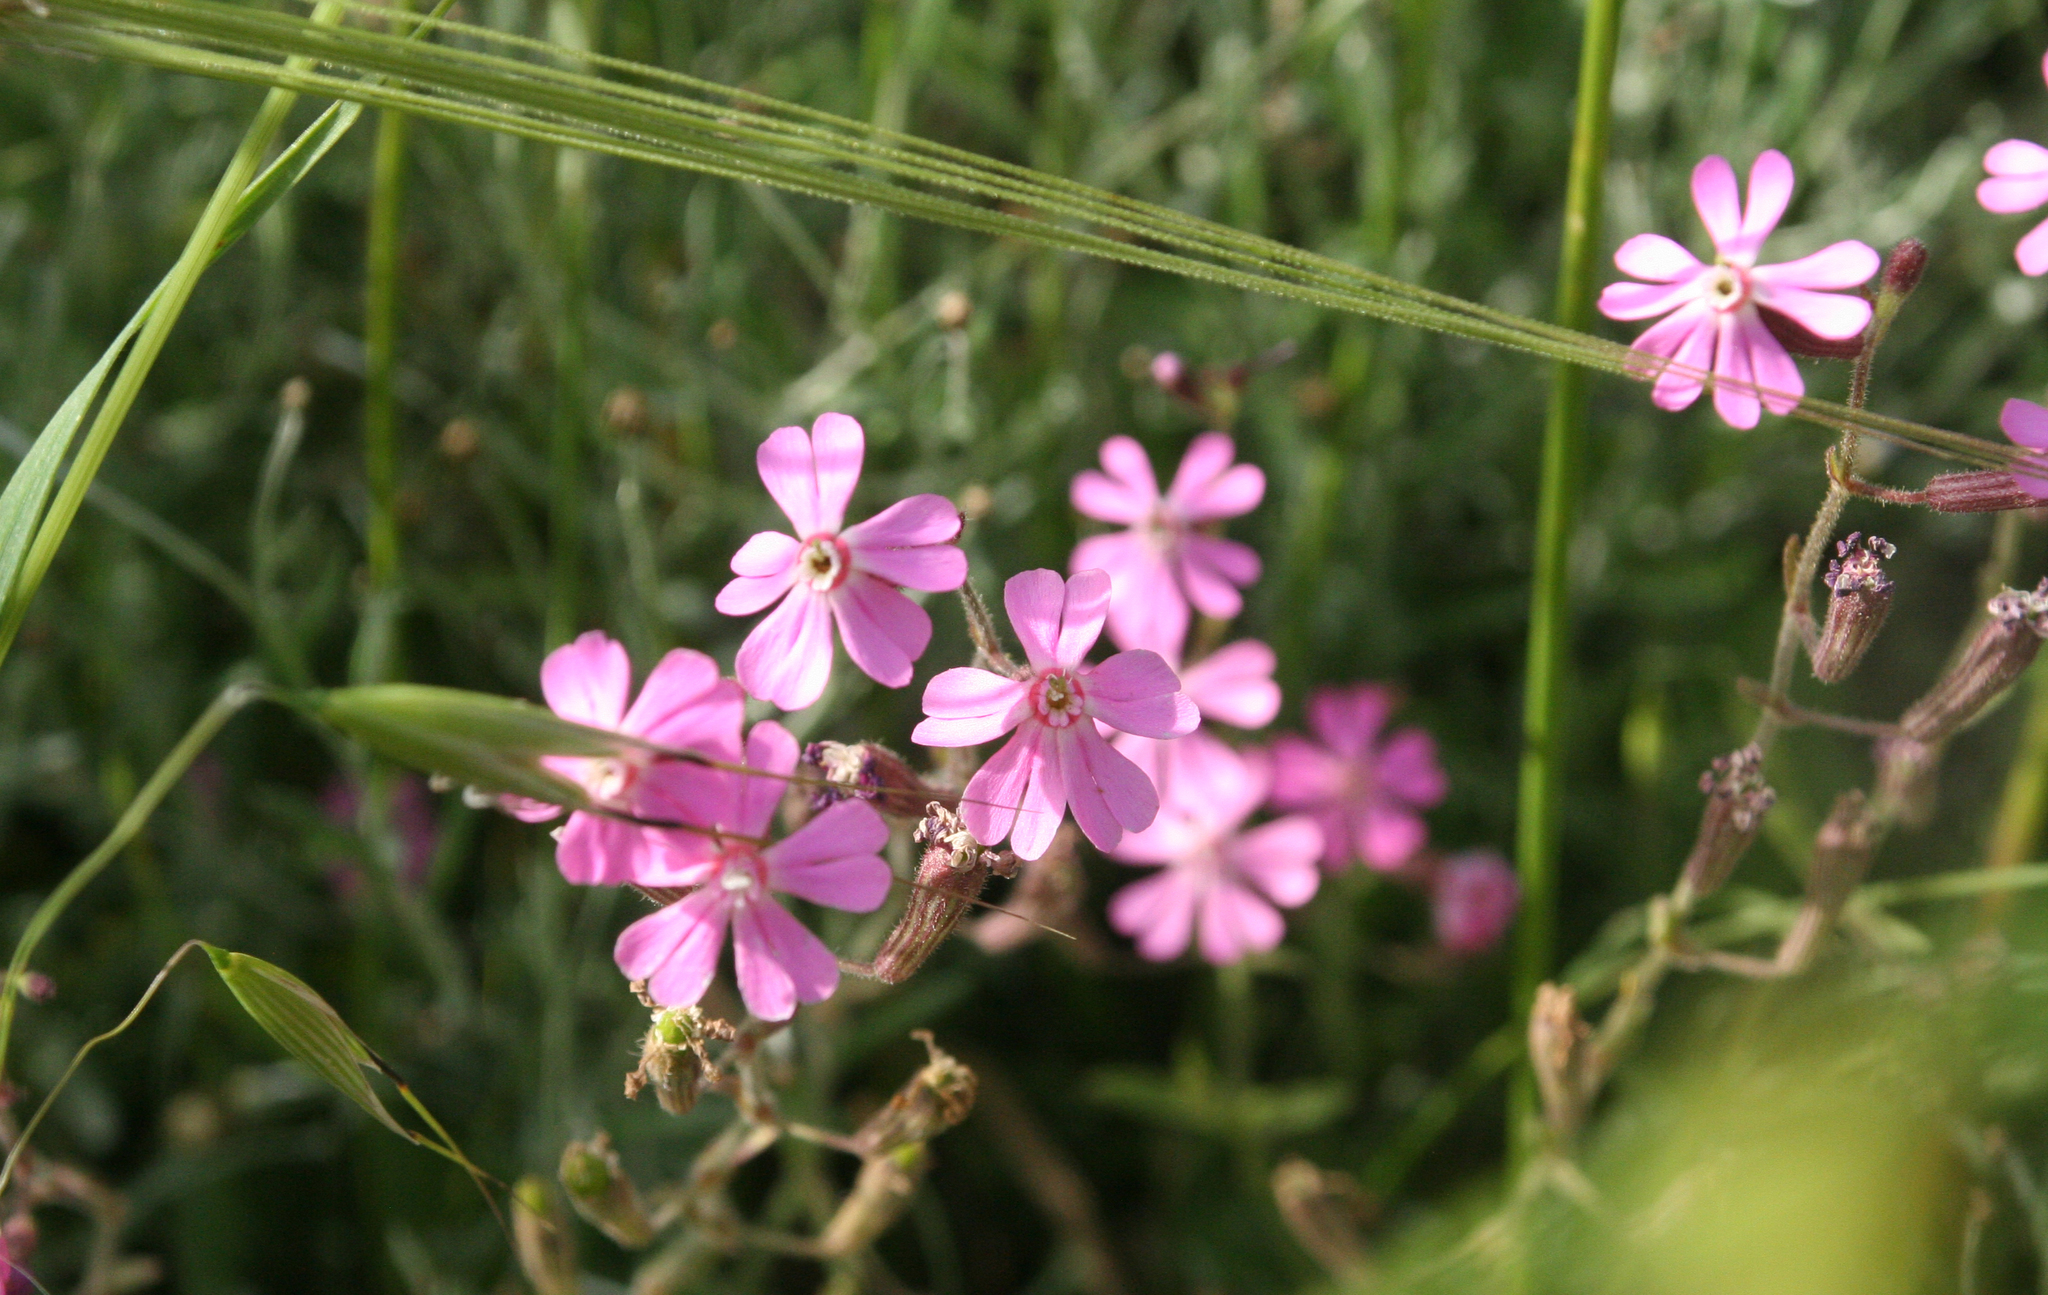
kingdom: Plantae
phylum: Tracheophyta
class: Magnoliopsida
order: Caryophyllales
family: Caryophyllaceae
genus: Silene
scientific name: Silene colorata
